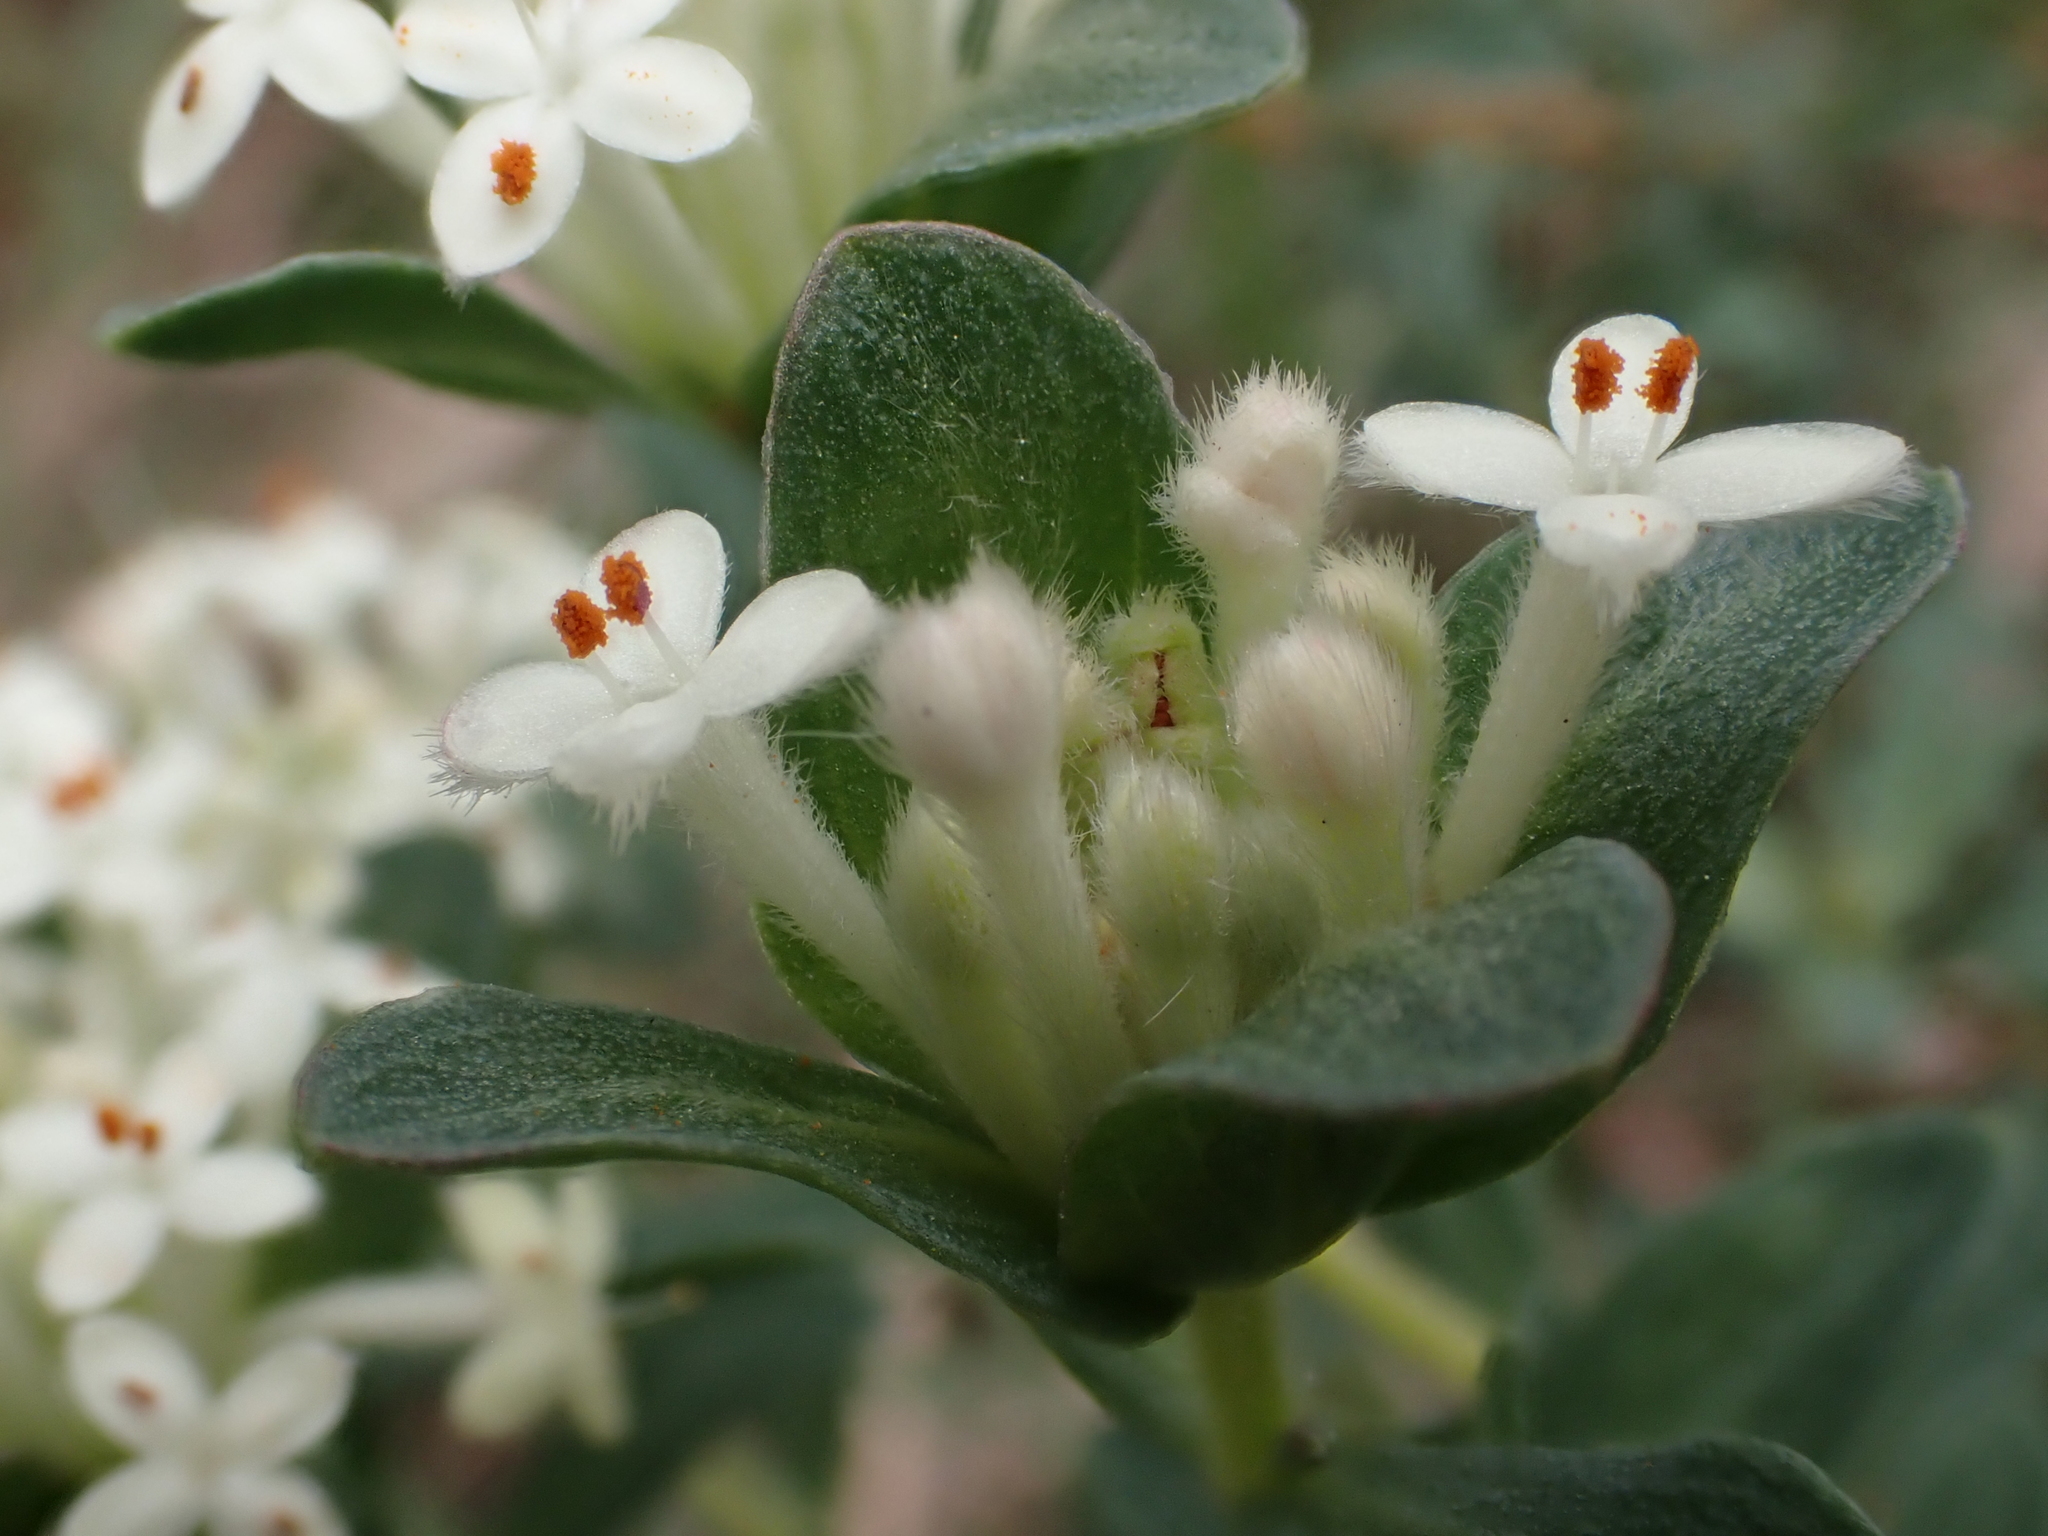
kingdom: Plantae
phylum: Tracheophyta
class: Magnoliopsida
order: Malvales
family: Thymelaeaceae
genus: Pimelea
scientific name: Pimelea humilis
